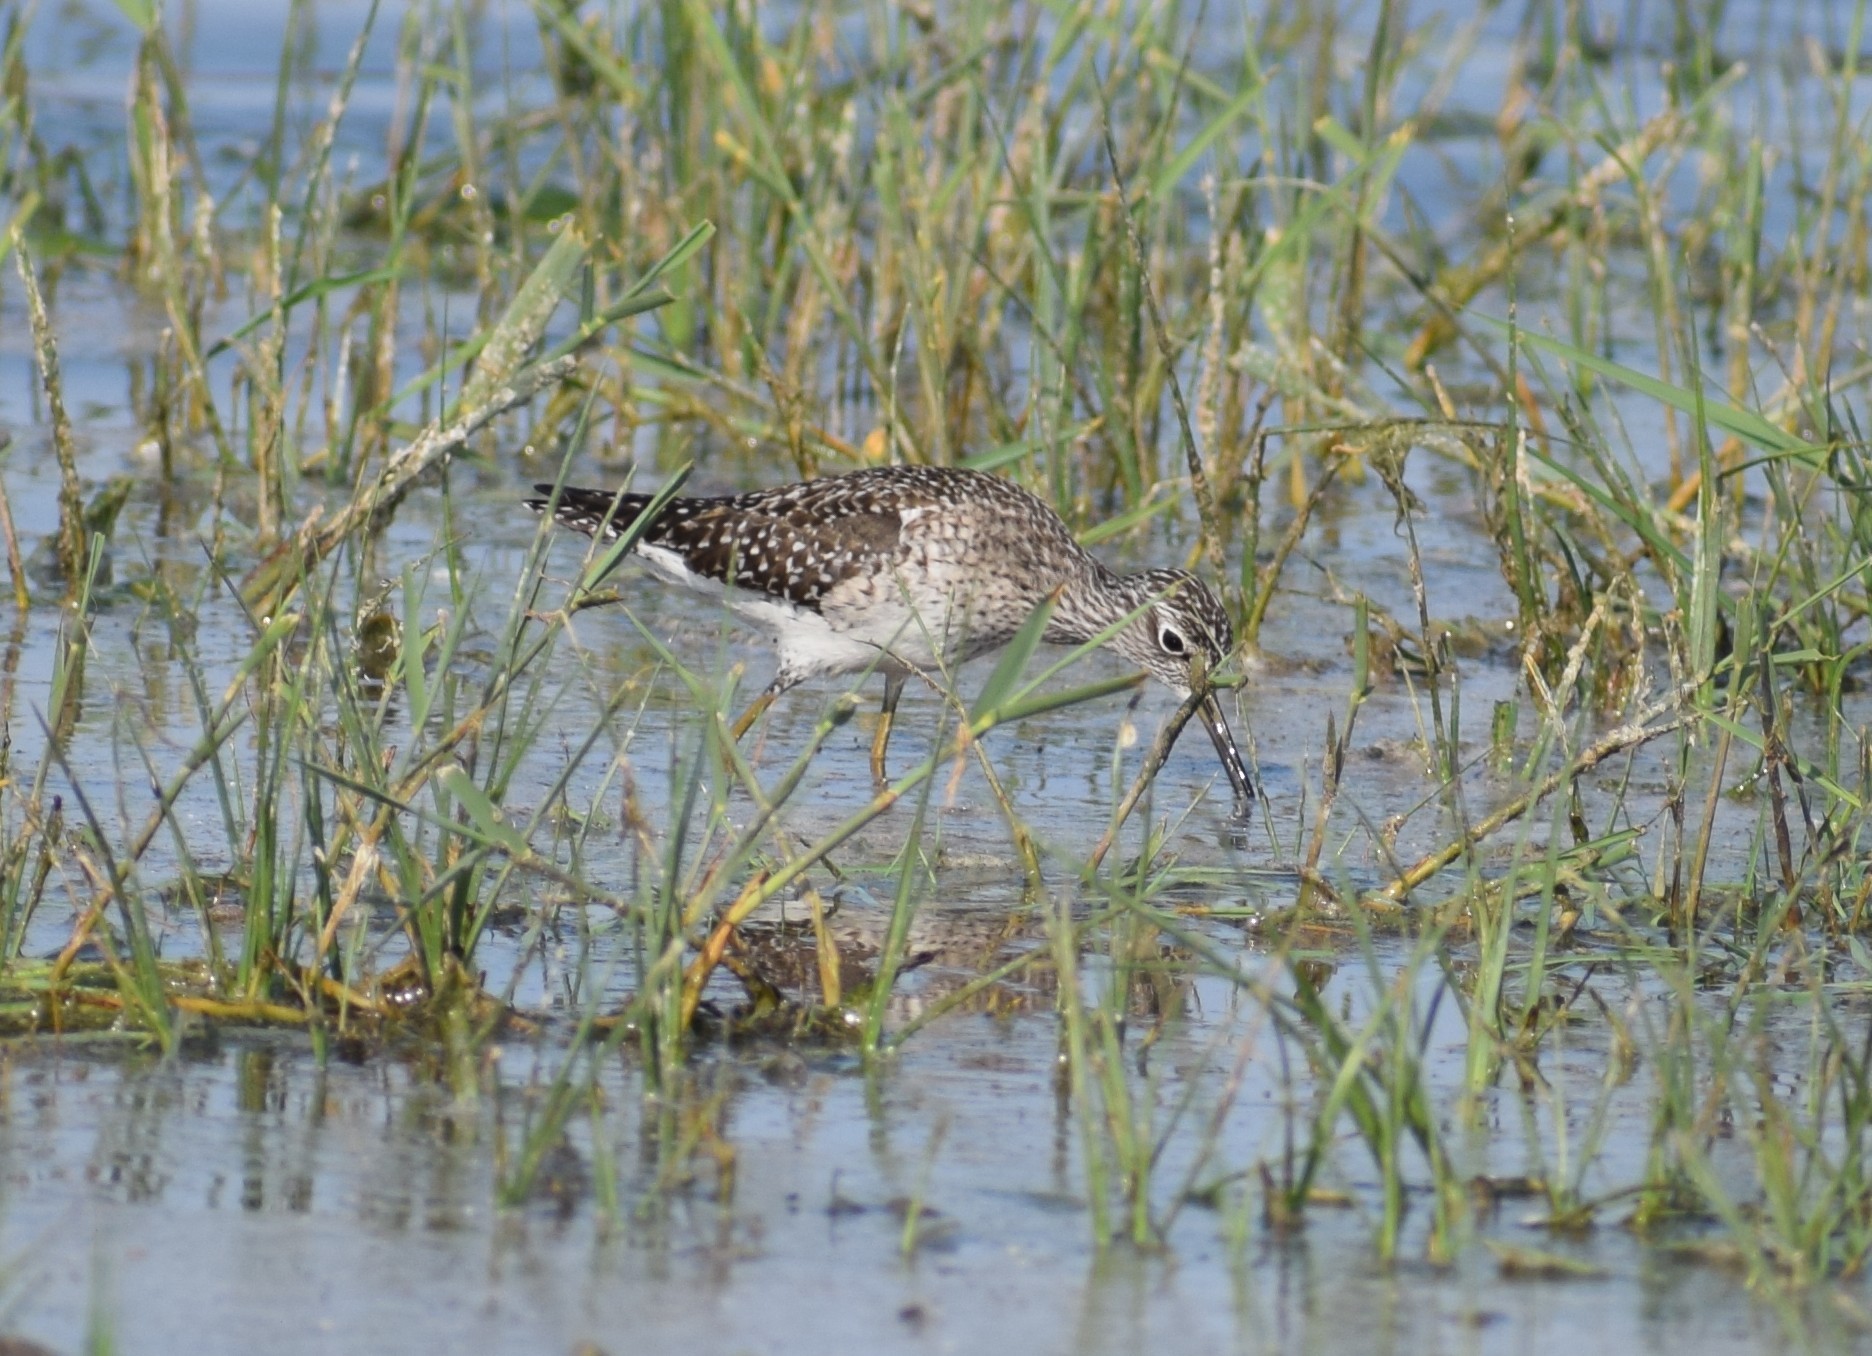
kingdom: Animalia
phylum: Chordata
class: Aves
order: Charadriiformes
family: Scolopacidae
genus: Tringa
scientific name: Tringa glareola
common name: Wood sandpiper
